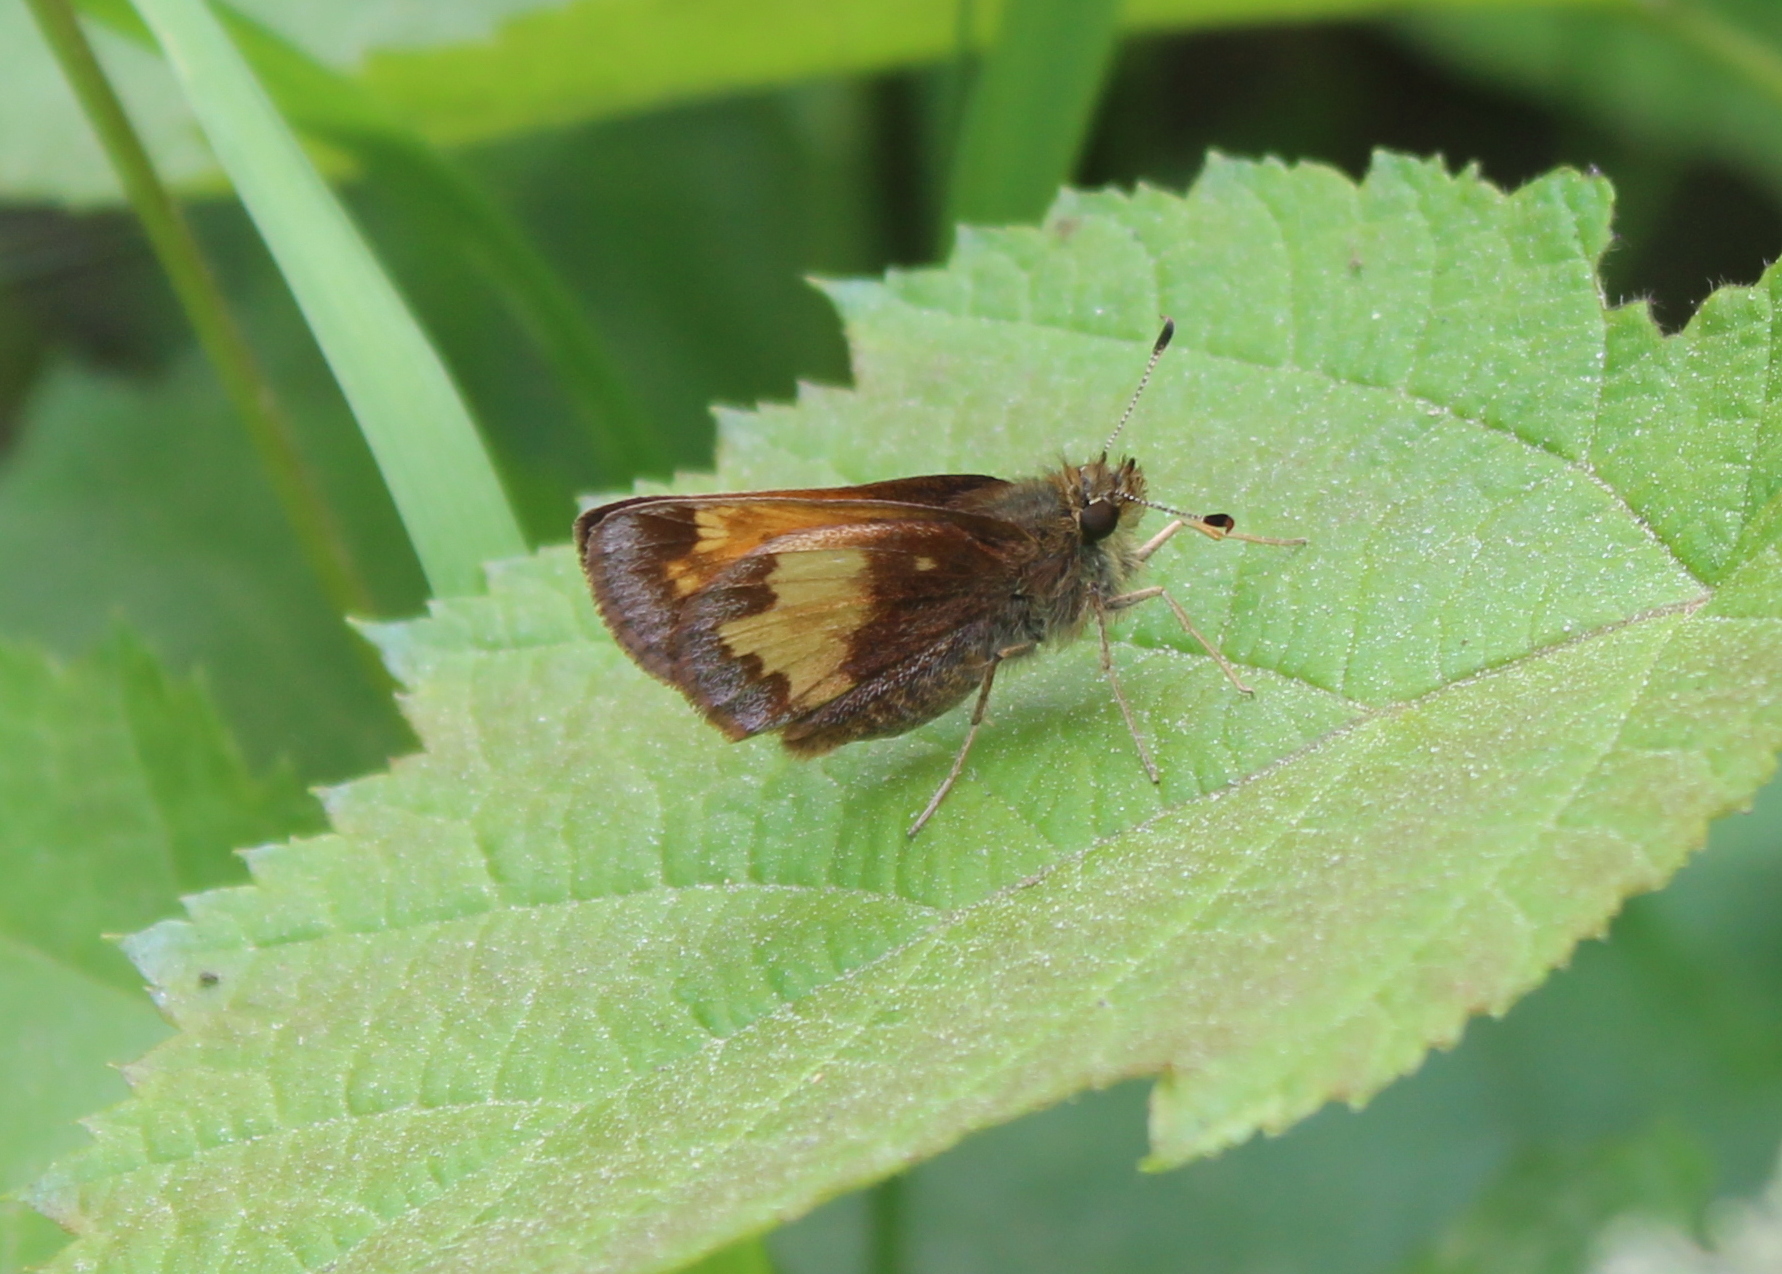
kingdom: Animalia
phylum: Arthropoda
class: Insecta
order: Lepidoptera
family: Hesperiidae
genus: Lon
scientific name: Lon hobomok
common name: Hobomok skipper
